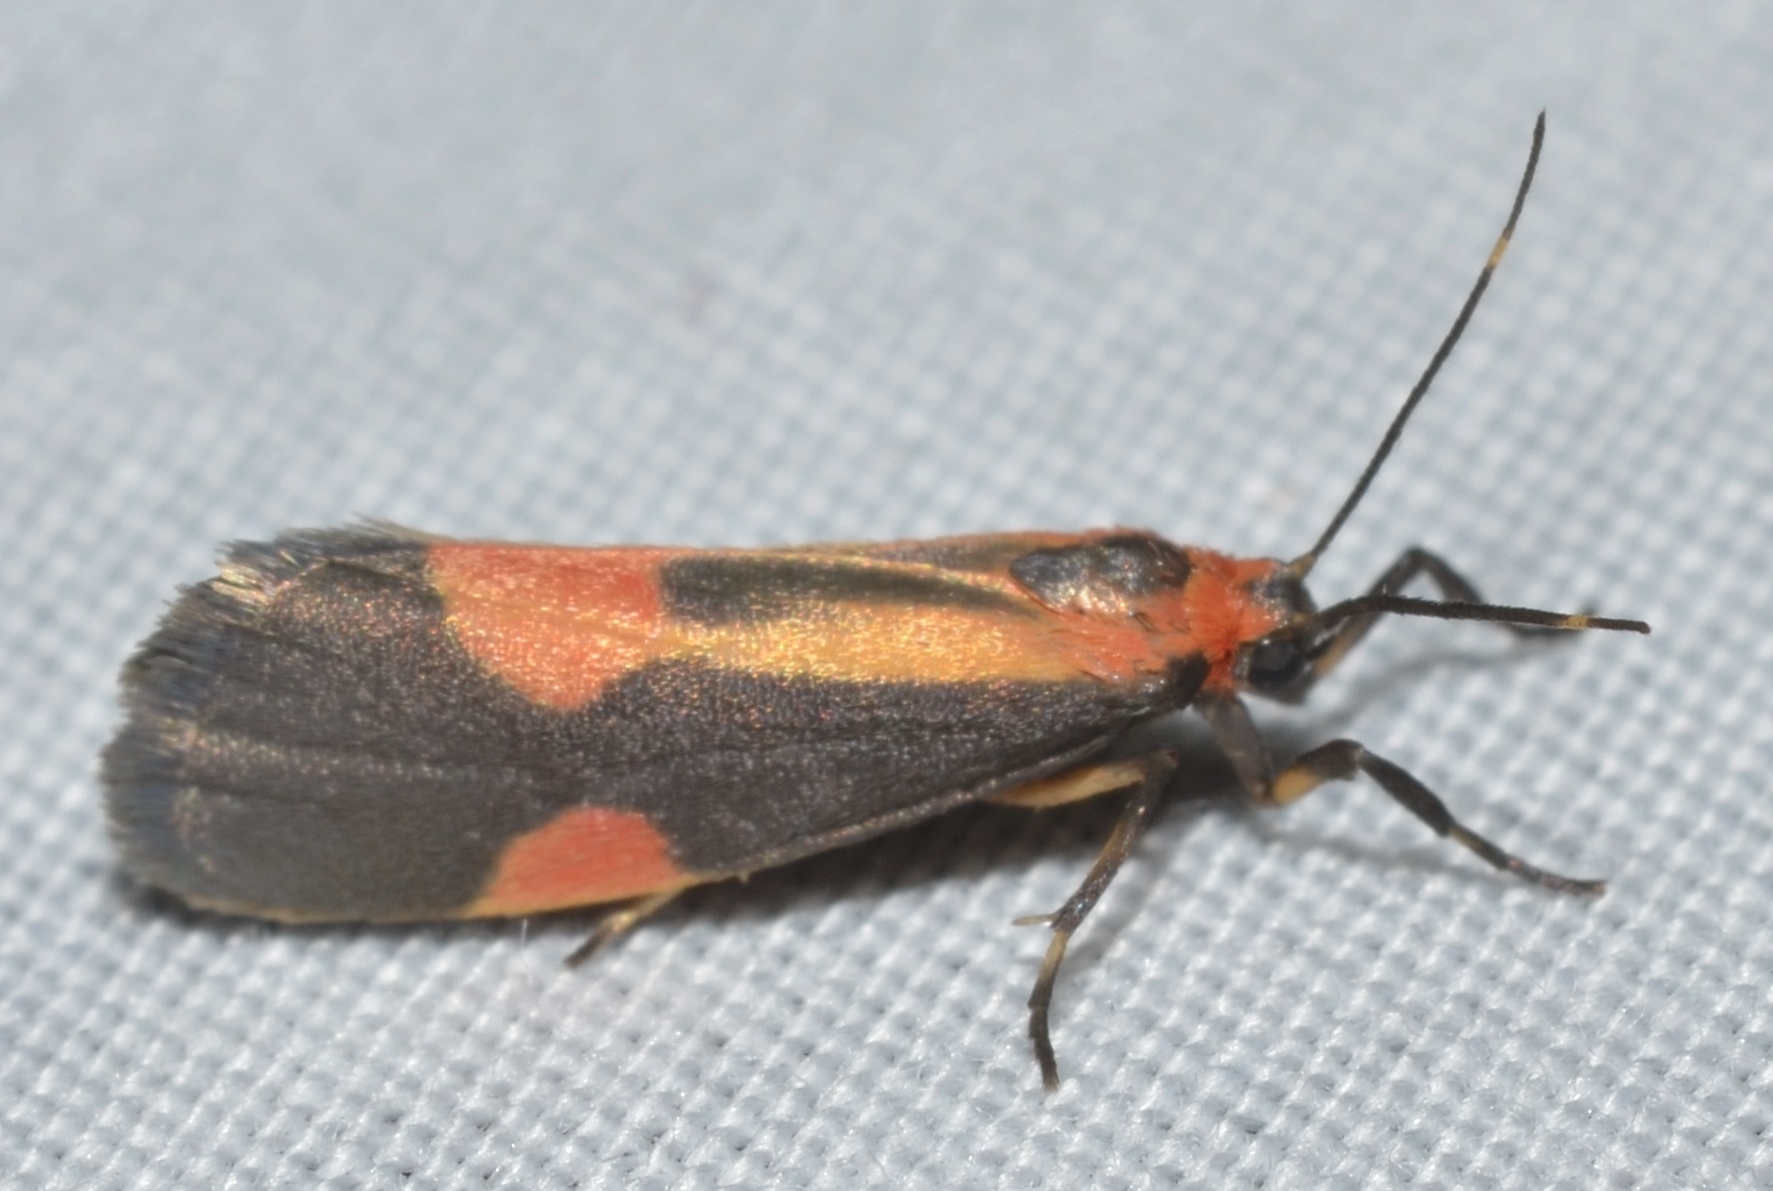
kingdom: Animalia
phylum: Arthropoda
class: Insecta
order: Lepidoptera
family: Erebidae
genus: Cisthene
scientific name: Cisthene packardii
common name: Packard's lichen moth
